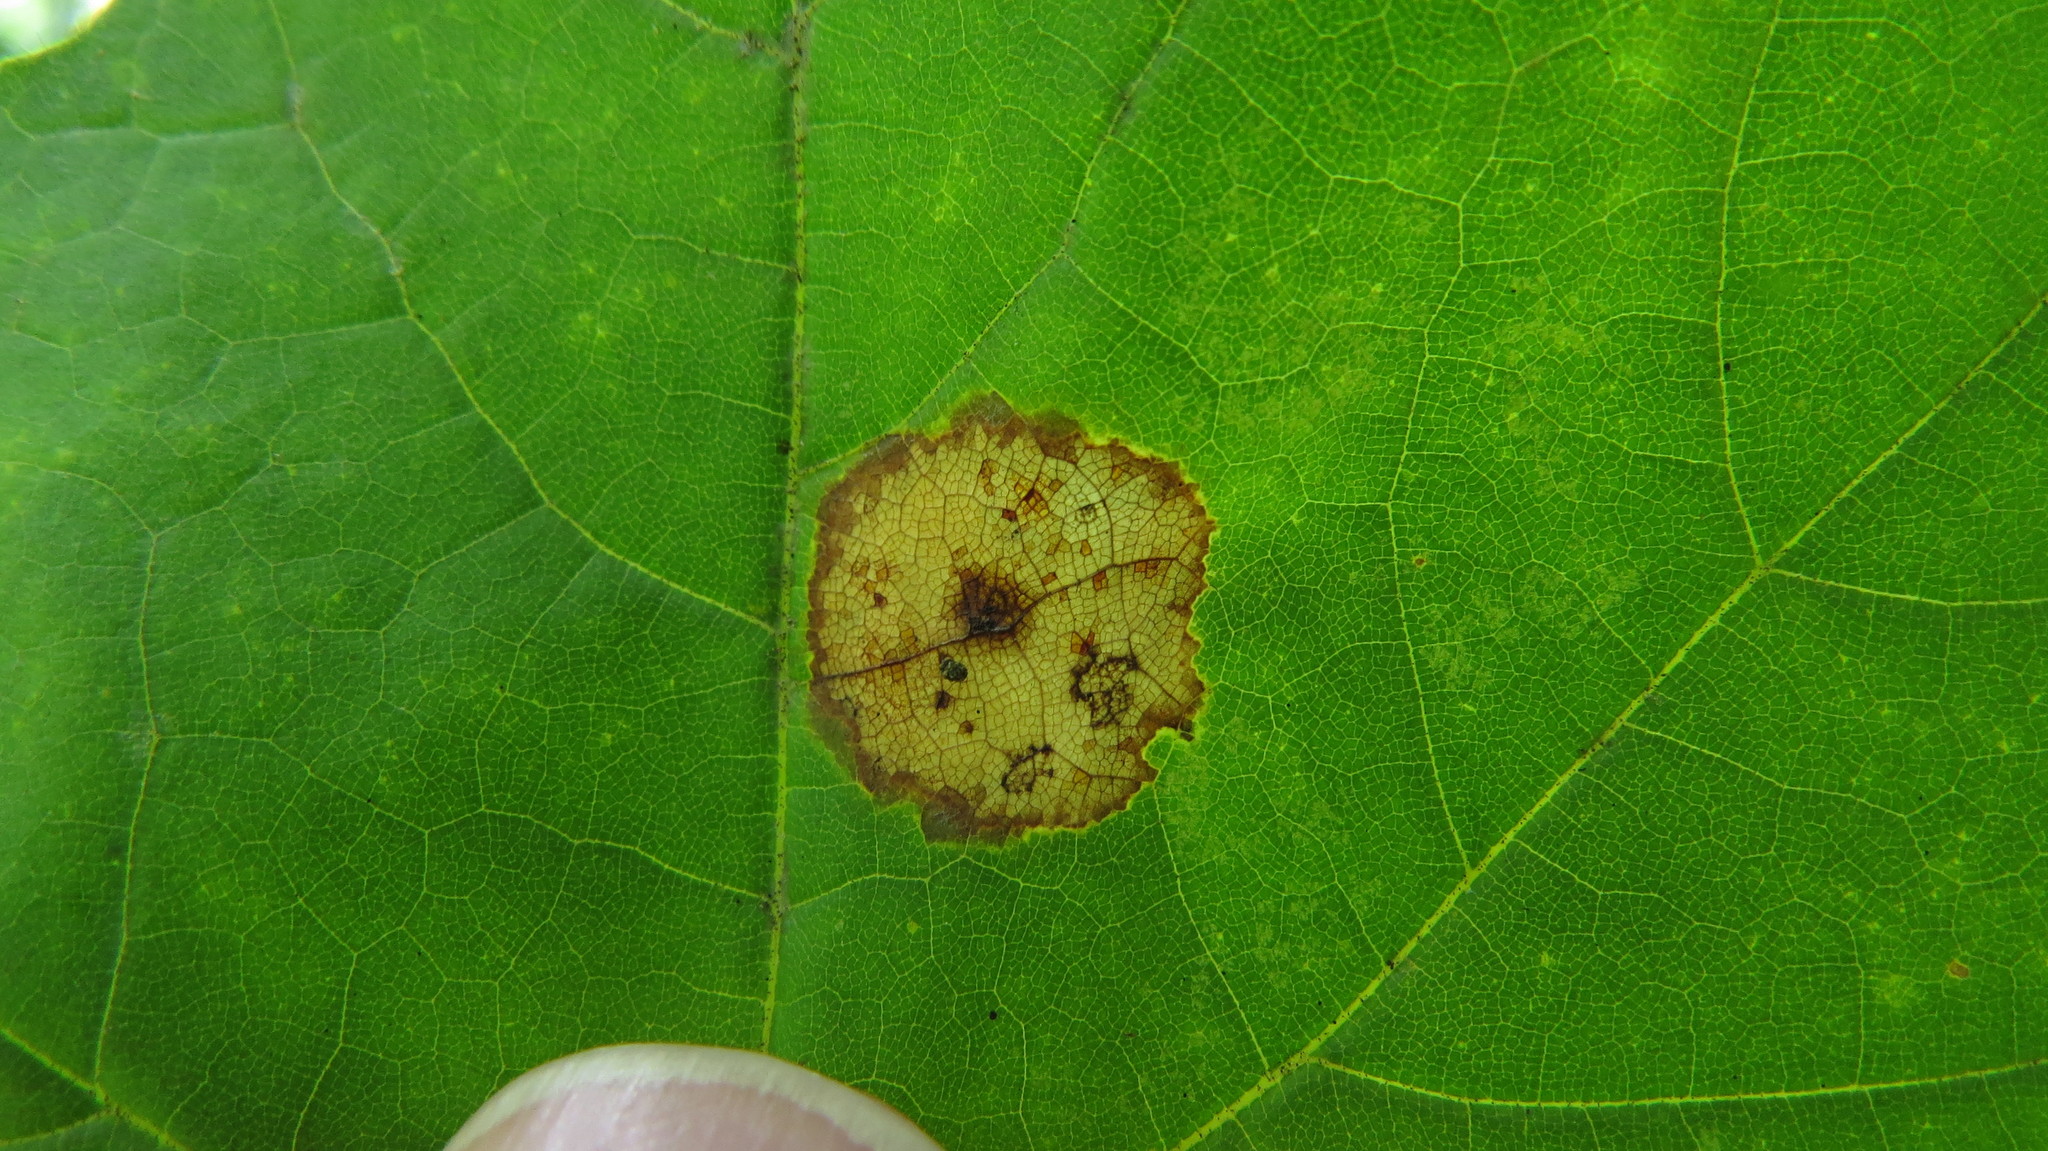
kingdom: Animalia
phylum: Arthropoda
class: Insecta
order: Diptera
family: Cecidomyiidae
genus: Acericecis
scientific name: Acericecis ocellaris
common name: Ocellate gall midge
